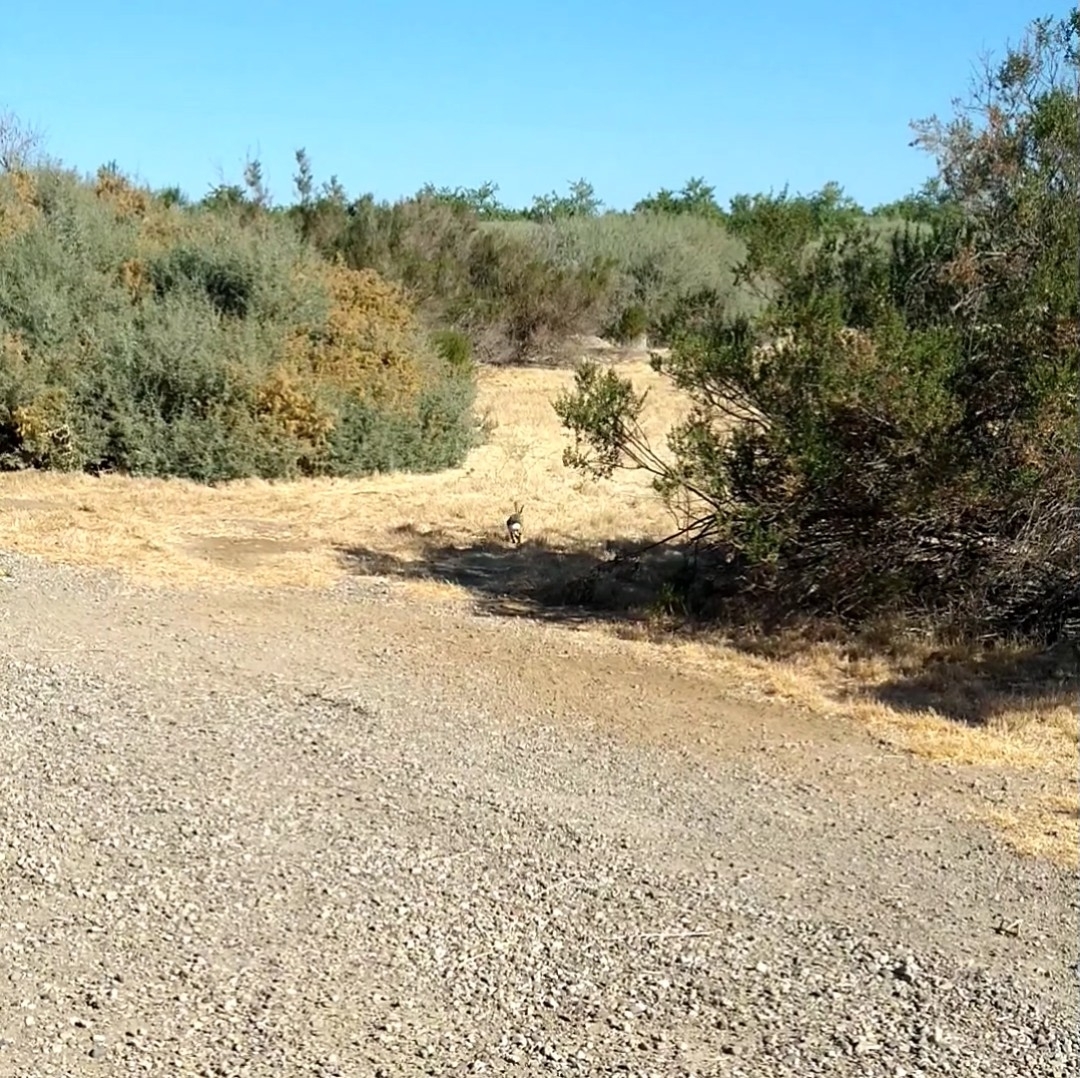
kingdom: Animalia
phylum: Chordata
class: Mammalia
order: Lagomorpha
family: Leporidae
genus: Sylvilagus
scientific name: Sylvilagus audubonii
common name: Desert cottontail
